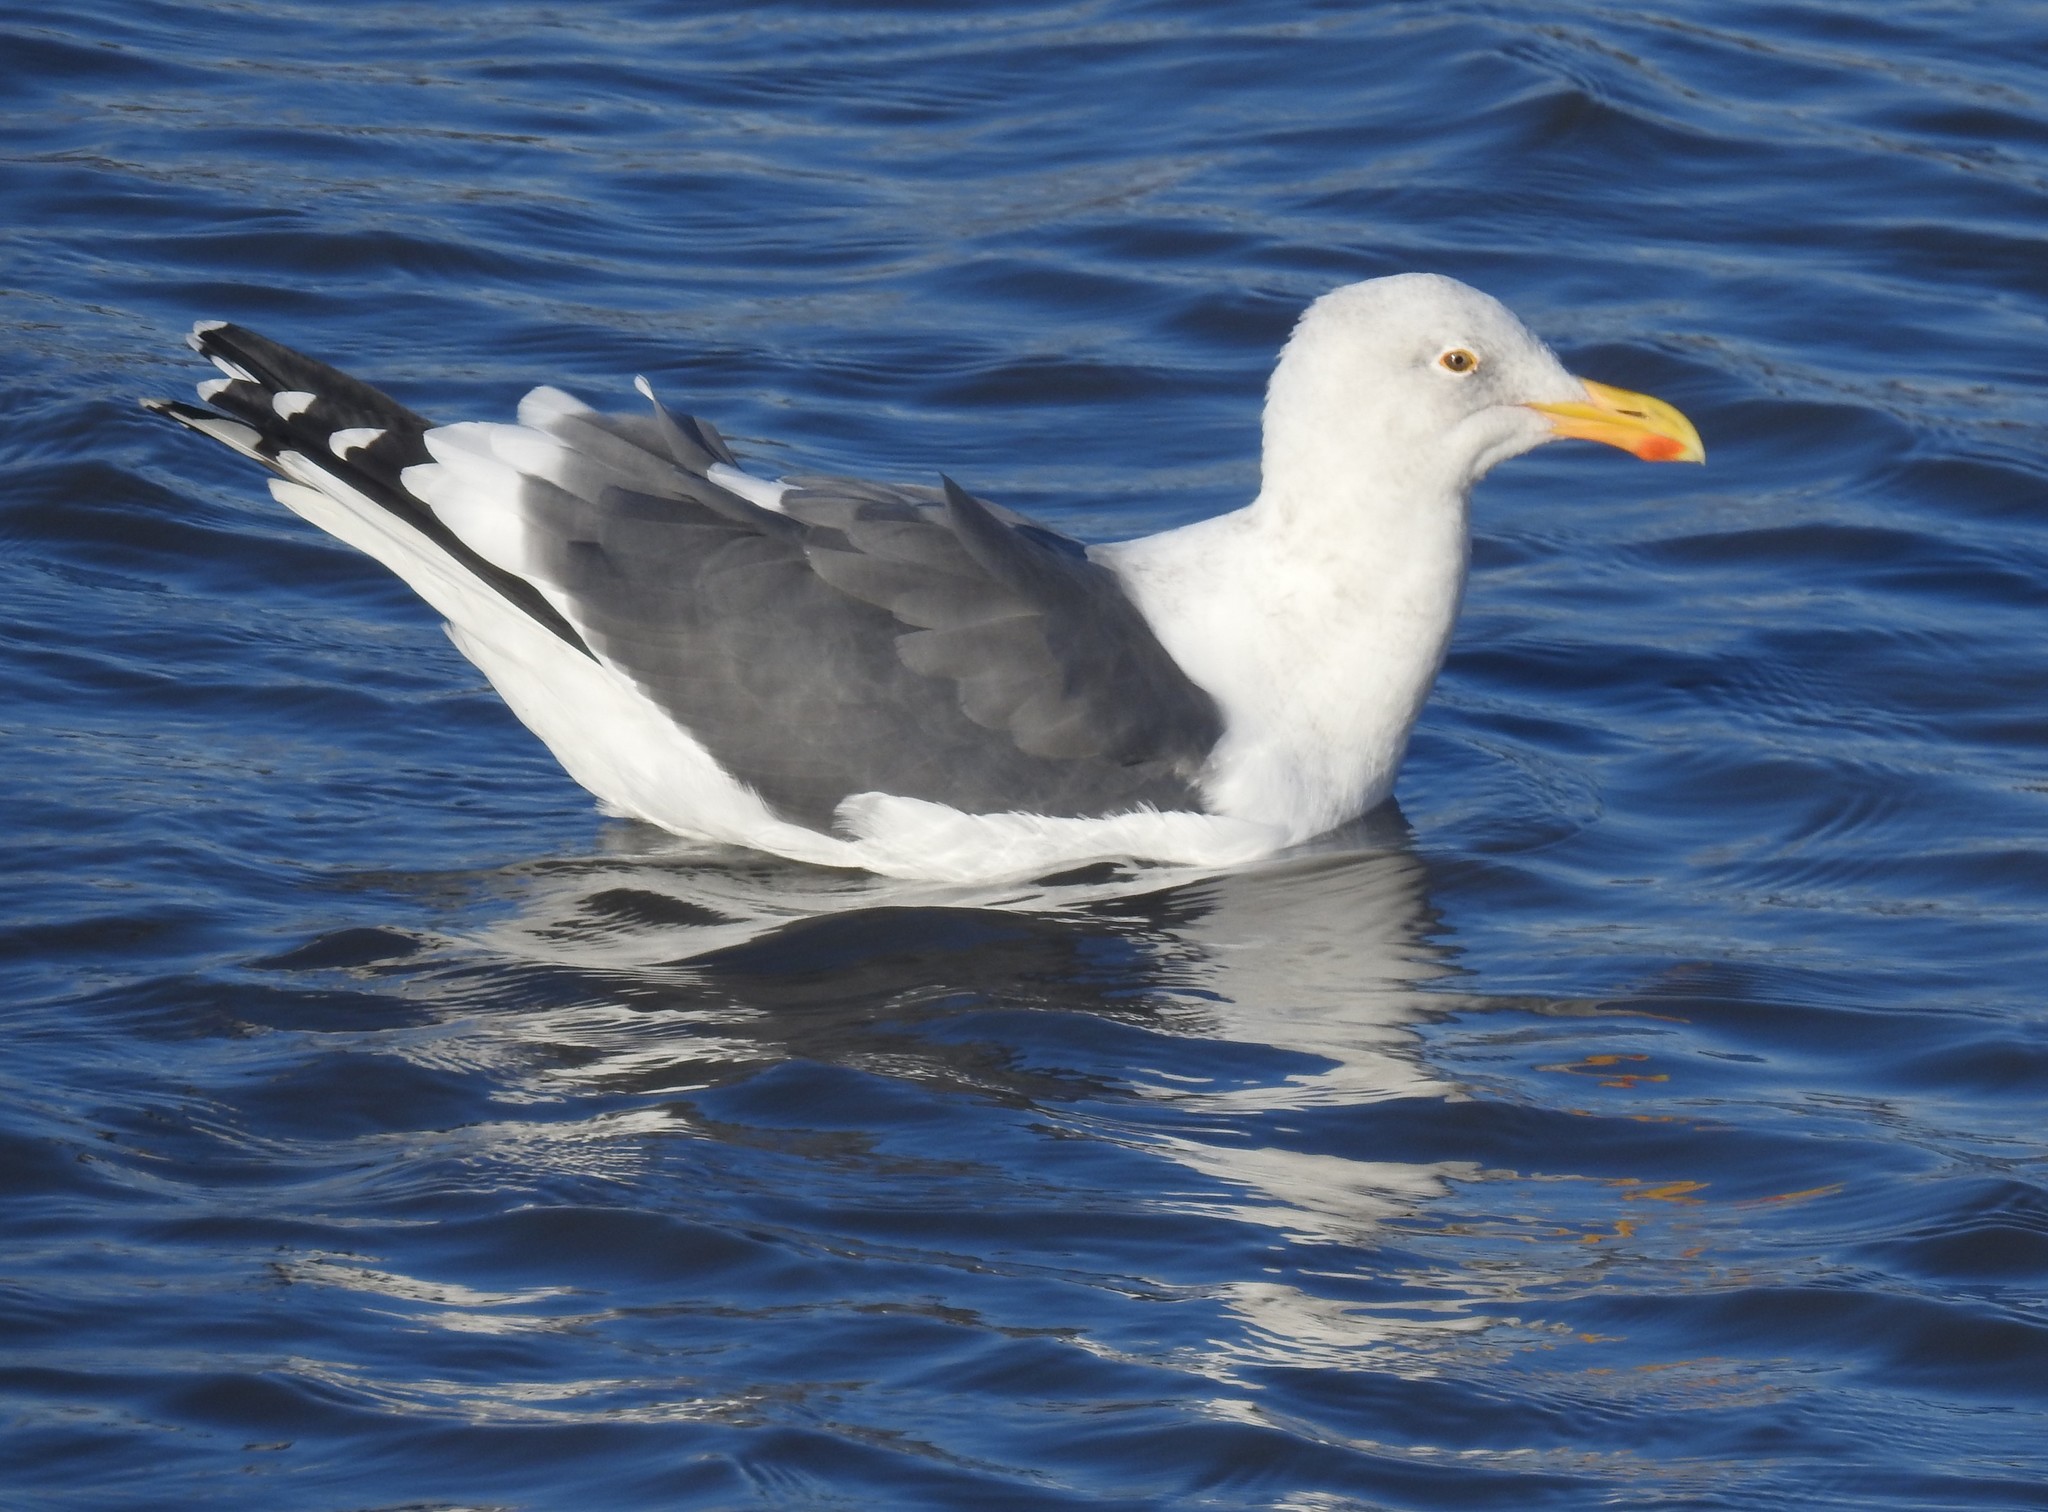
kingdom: Animalia
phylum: Chordata
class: Aves
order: Charadriiformes
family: Laridae
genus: Larus
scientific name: Larus occidentalis
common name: Western gull
